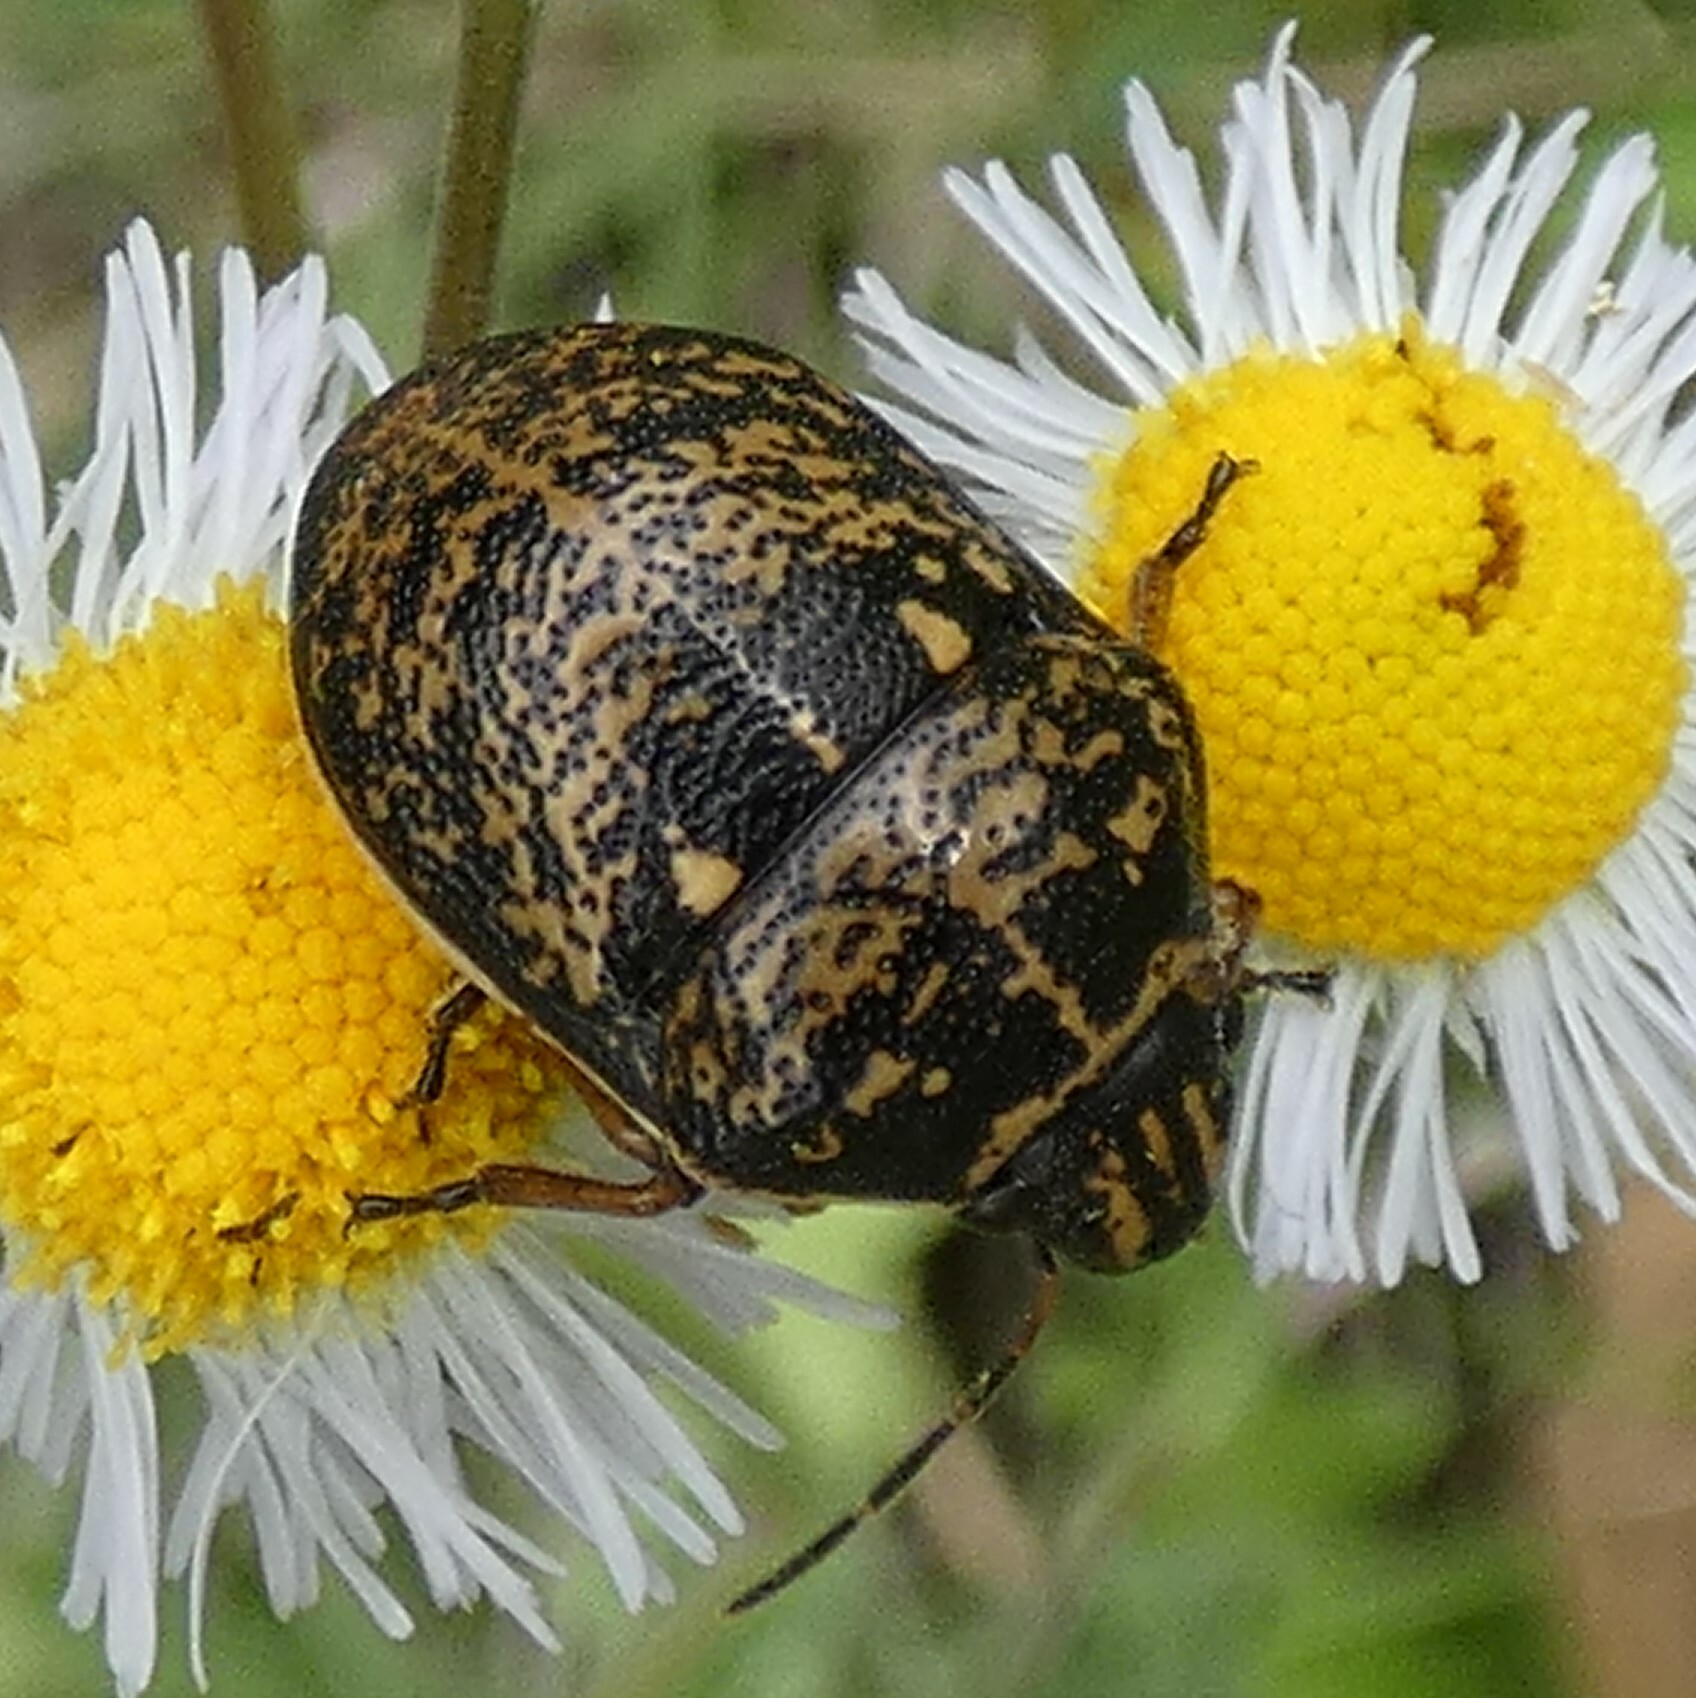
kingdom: Animalia
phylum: Arthropoda
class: Insecta
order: Hemiptera
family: Scutelleridae
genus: Orsilochides
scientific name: Orsilochides guttata
